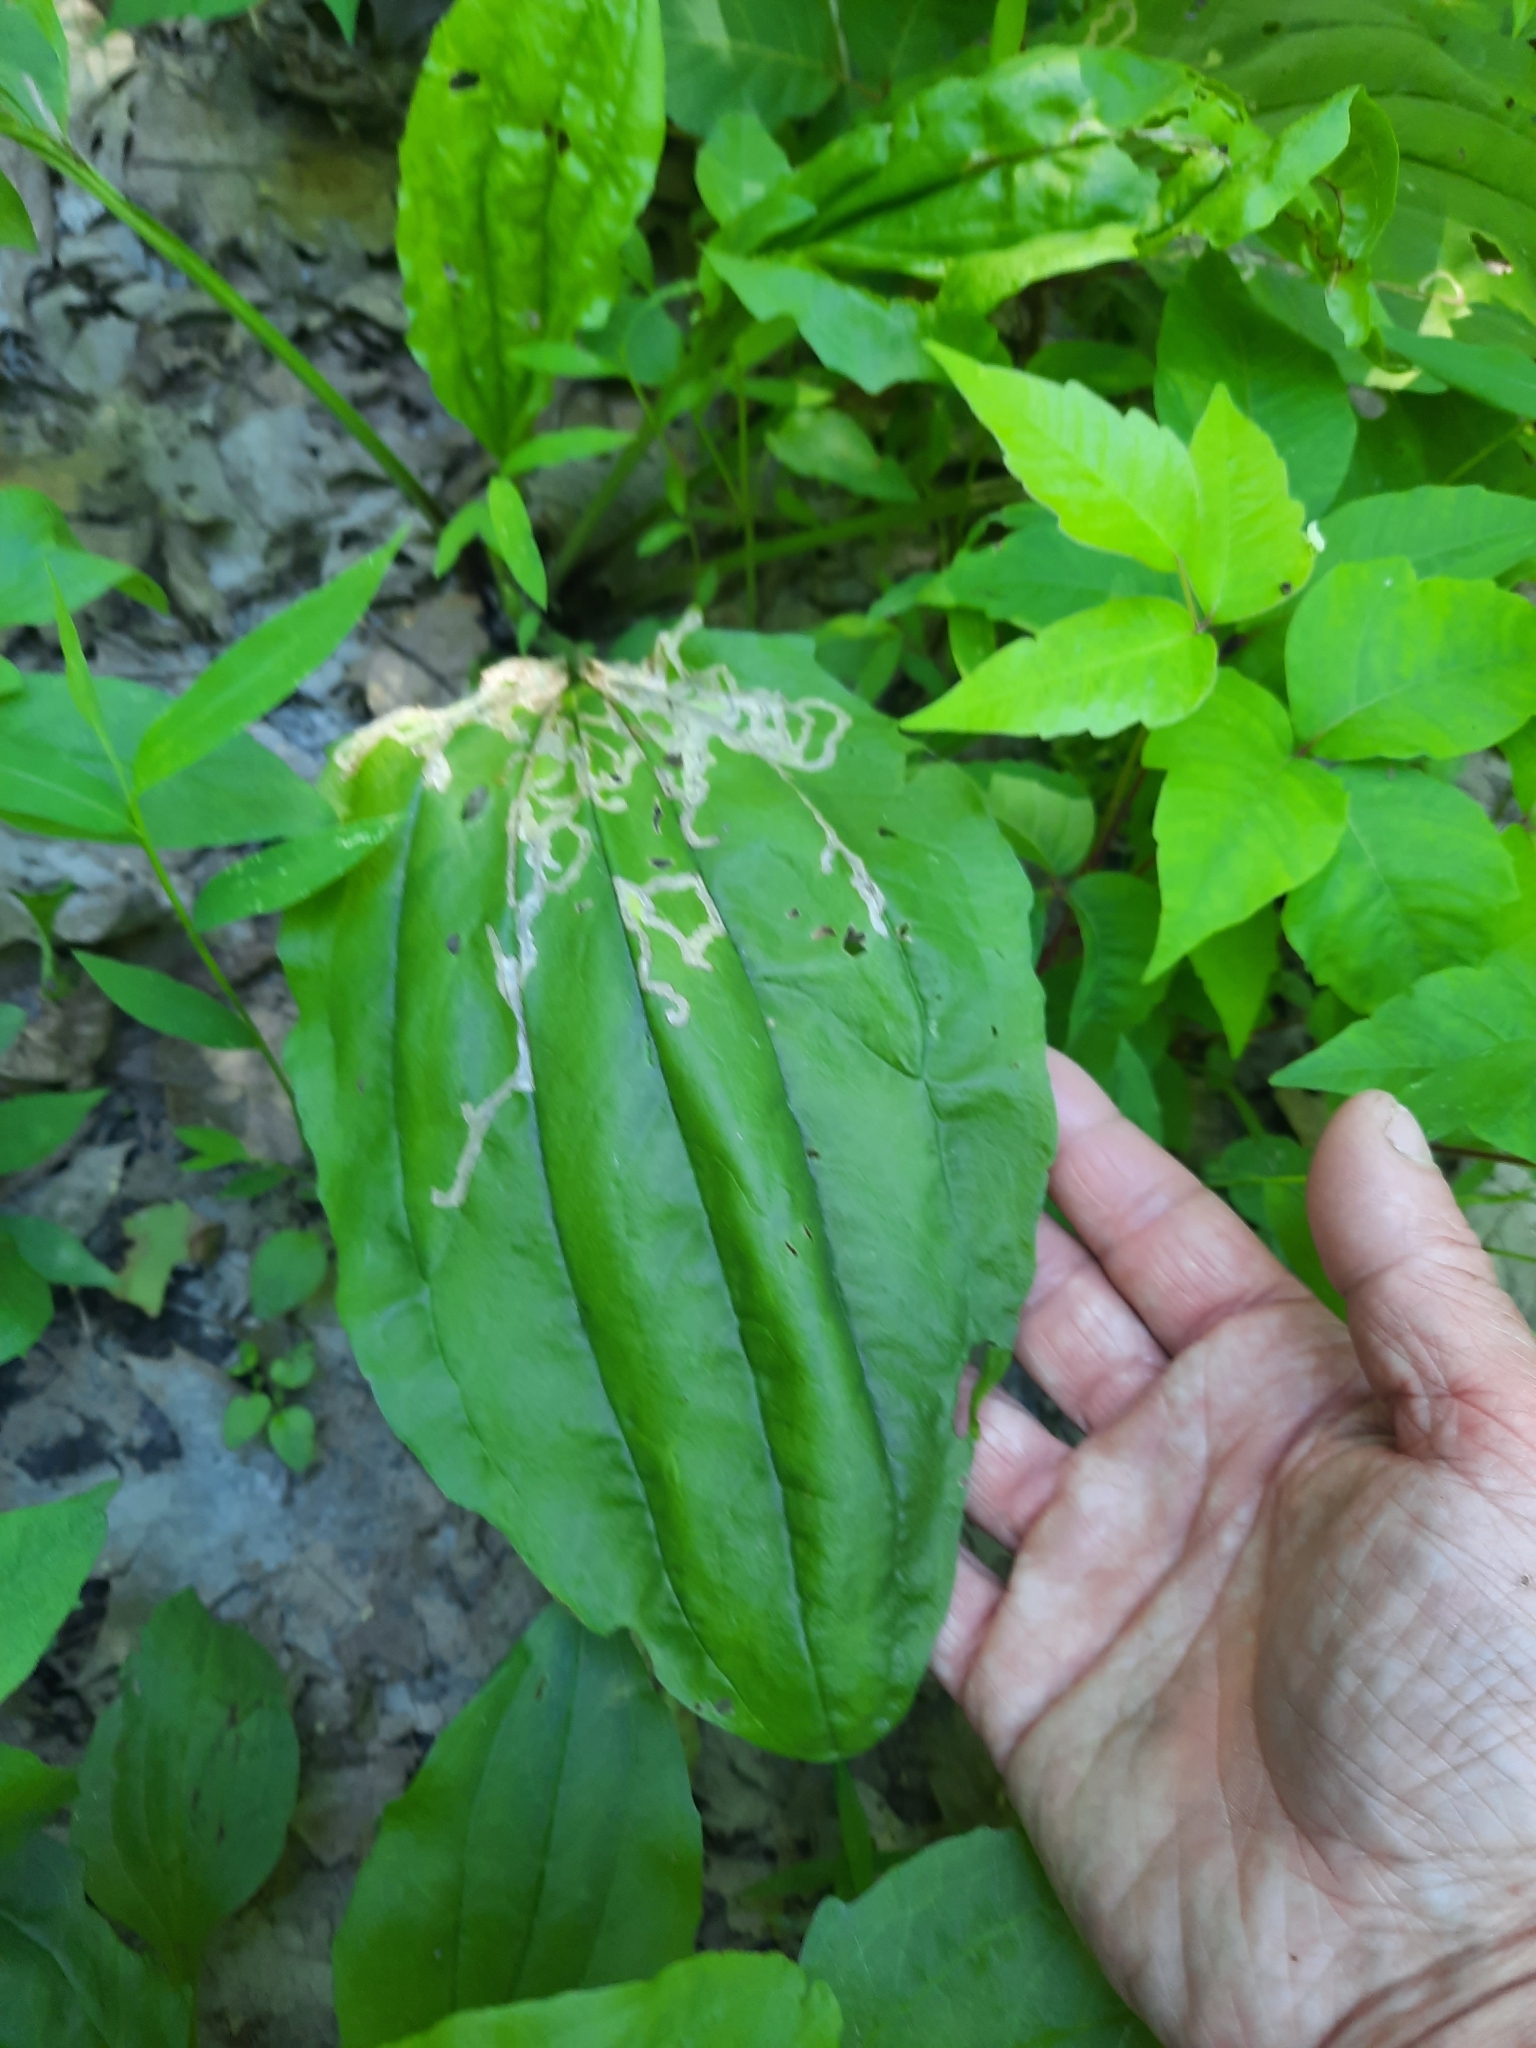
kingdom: Plantae
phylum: Tracheophyta
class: Magnoliopsida
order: Lamiales
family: Plantaginaceae
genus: Plantago
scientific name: Plantago rugelii
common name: American plantain
